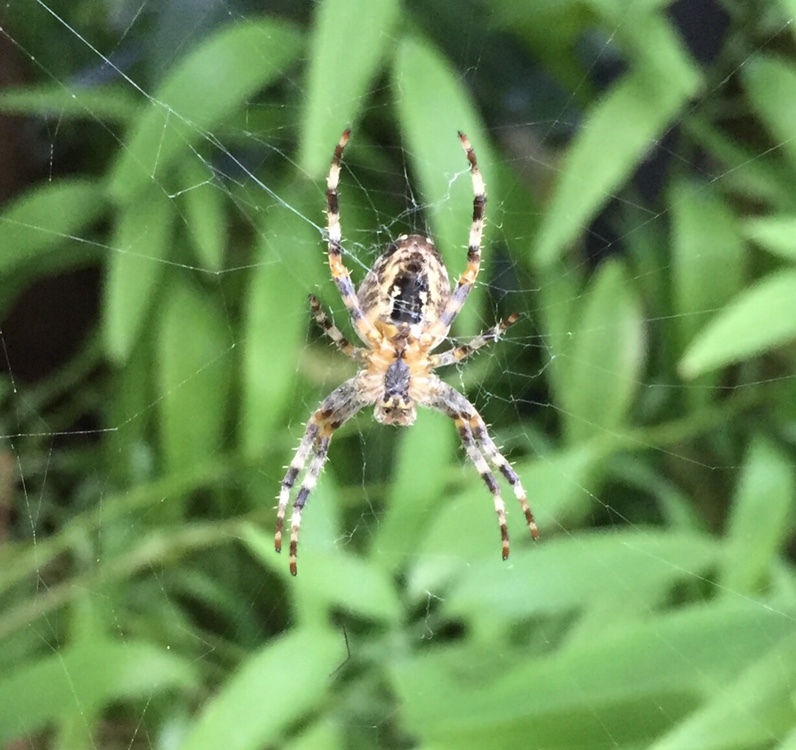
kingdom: Animalia
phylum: Arthropoda
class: Arachnida
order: Araneae
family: Araneidae
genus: Araneus
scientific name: Araneus diadematus
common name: Cross orbweaver
